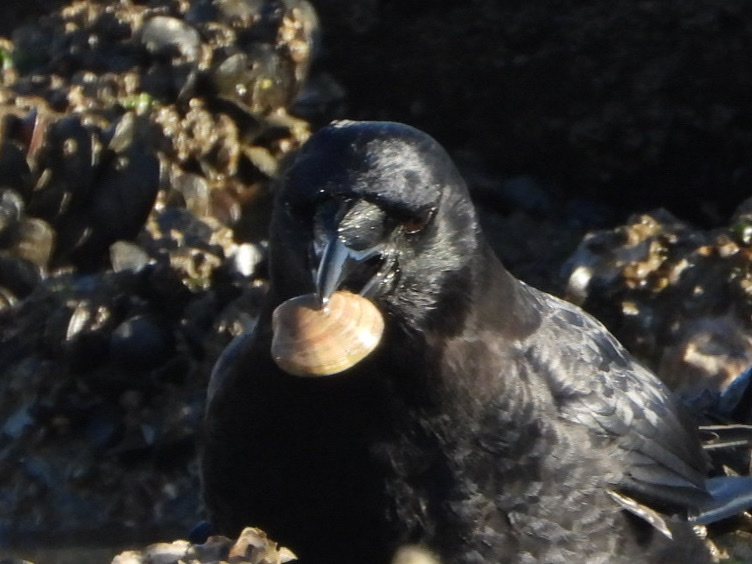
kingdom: Animalia
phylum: Mollusca
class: Bivalvia
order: Venerida
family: Veneridae
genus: Ruditapes
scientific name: Ruditapes philippinarum
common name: Manila clam
